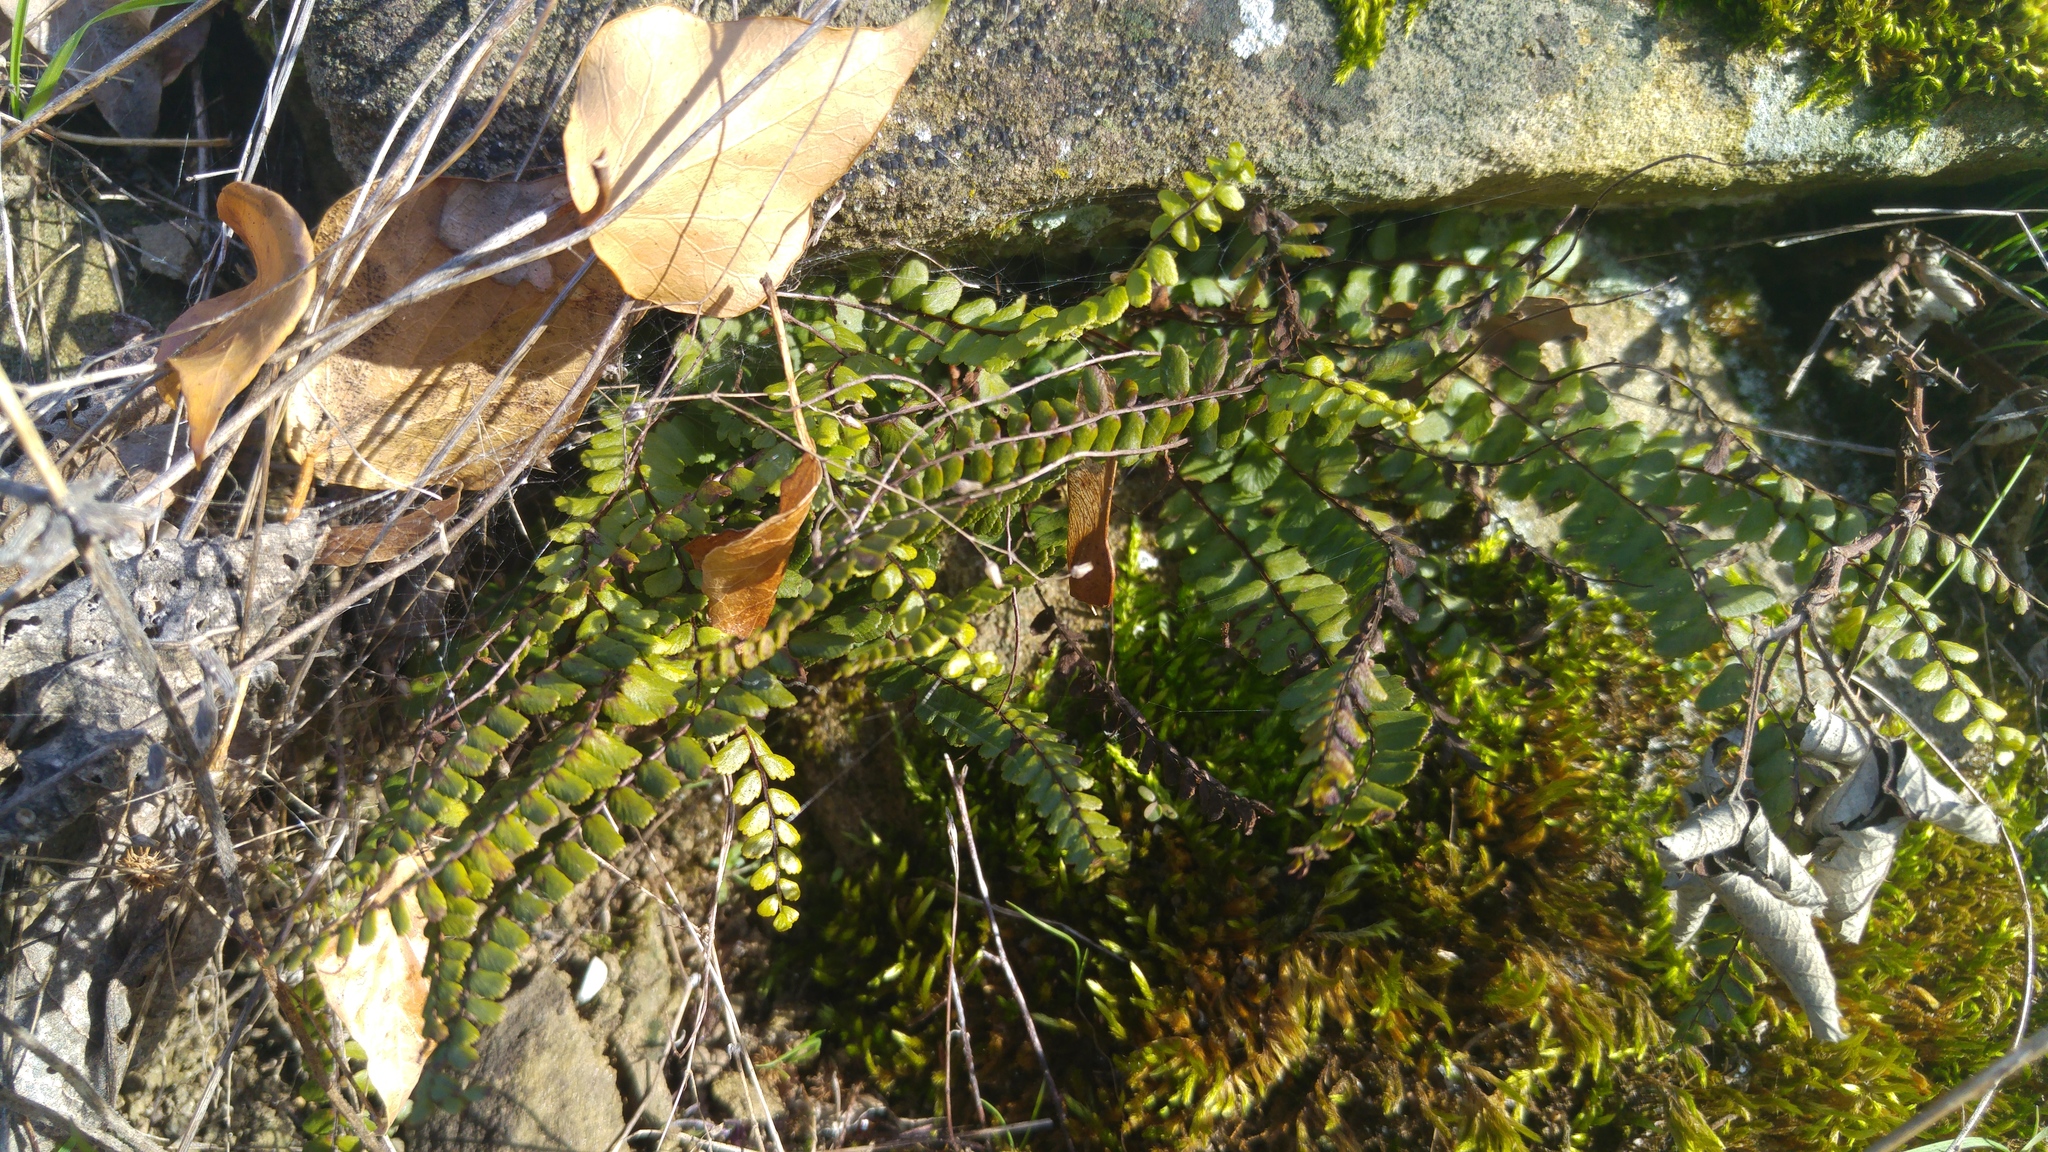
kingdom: Plantae
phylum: Tracheophyta
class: Polypodiopsida
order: Polypodiales
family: Aspleniaceae
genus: Asplenium
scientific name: Asplenium trichomanes
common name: Maidenhair spleenwort
